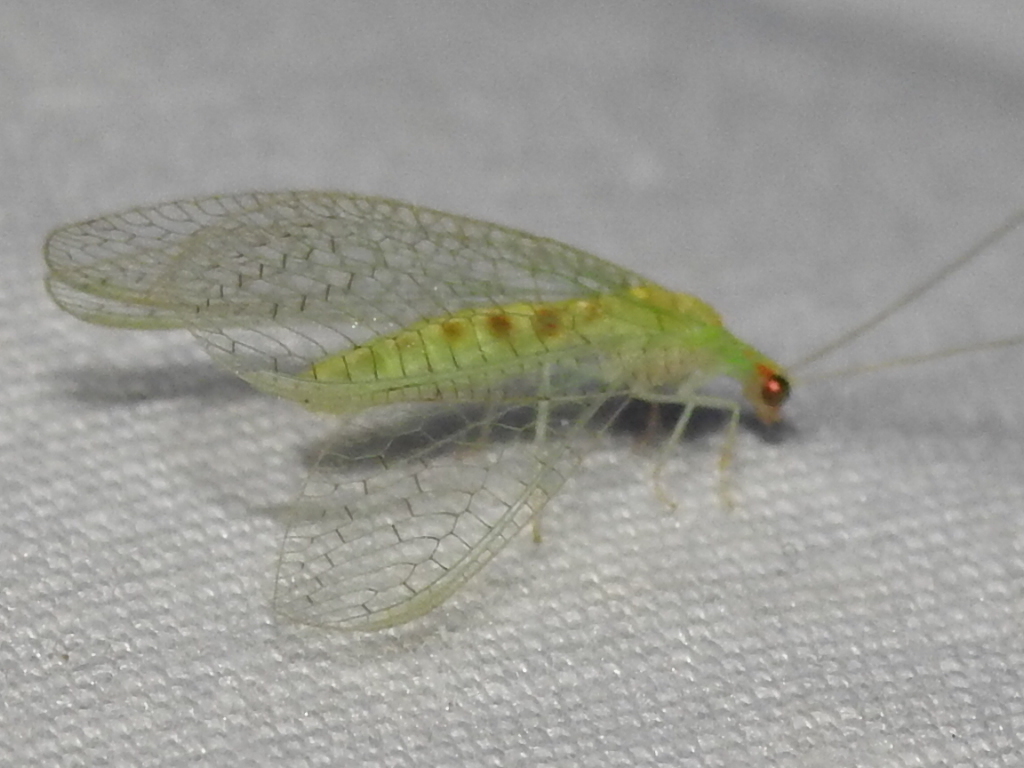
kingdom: Animalia
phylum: Arthropoda
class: Insecta
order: Neuroptera
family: Chrysopidae
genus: Chrysopa
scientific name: Chrysopa quadripunctata
